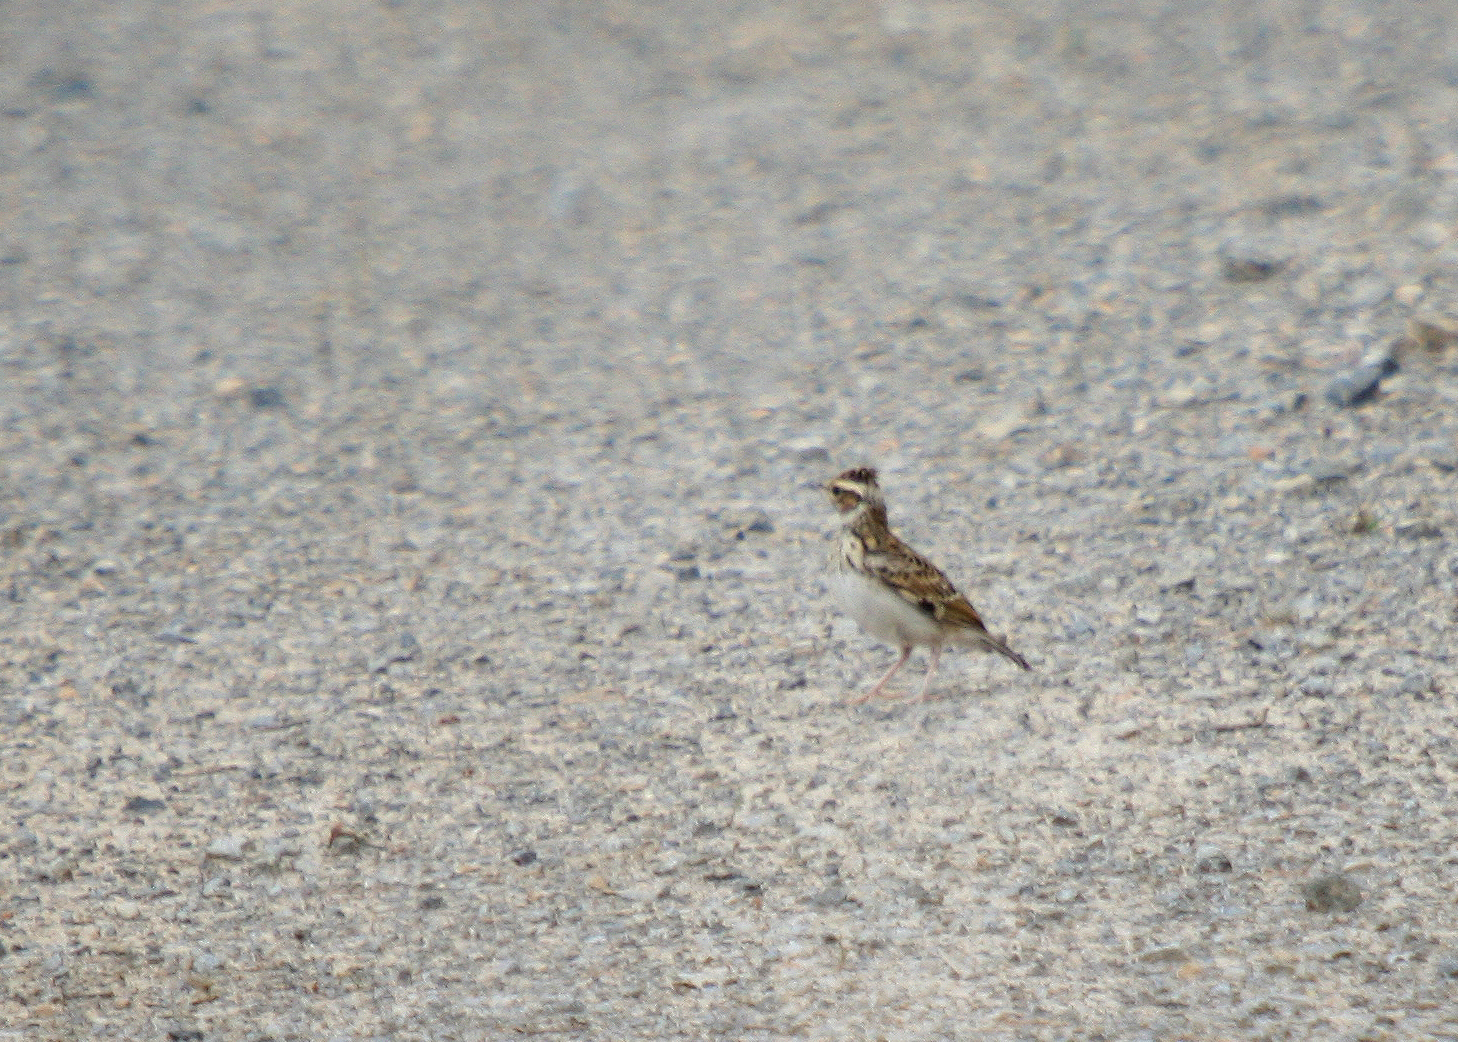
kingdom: Animalia
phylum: Chordata
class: Aves
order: Passeriformes
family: Alaudidae
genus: Lullula
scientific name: Lullula arborea
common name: Woodlark
